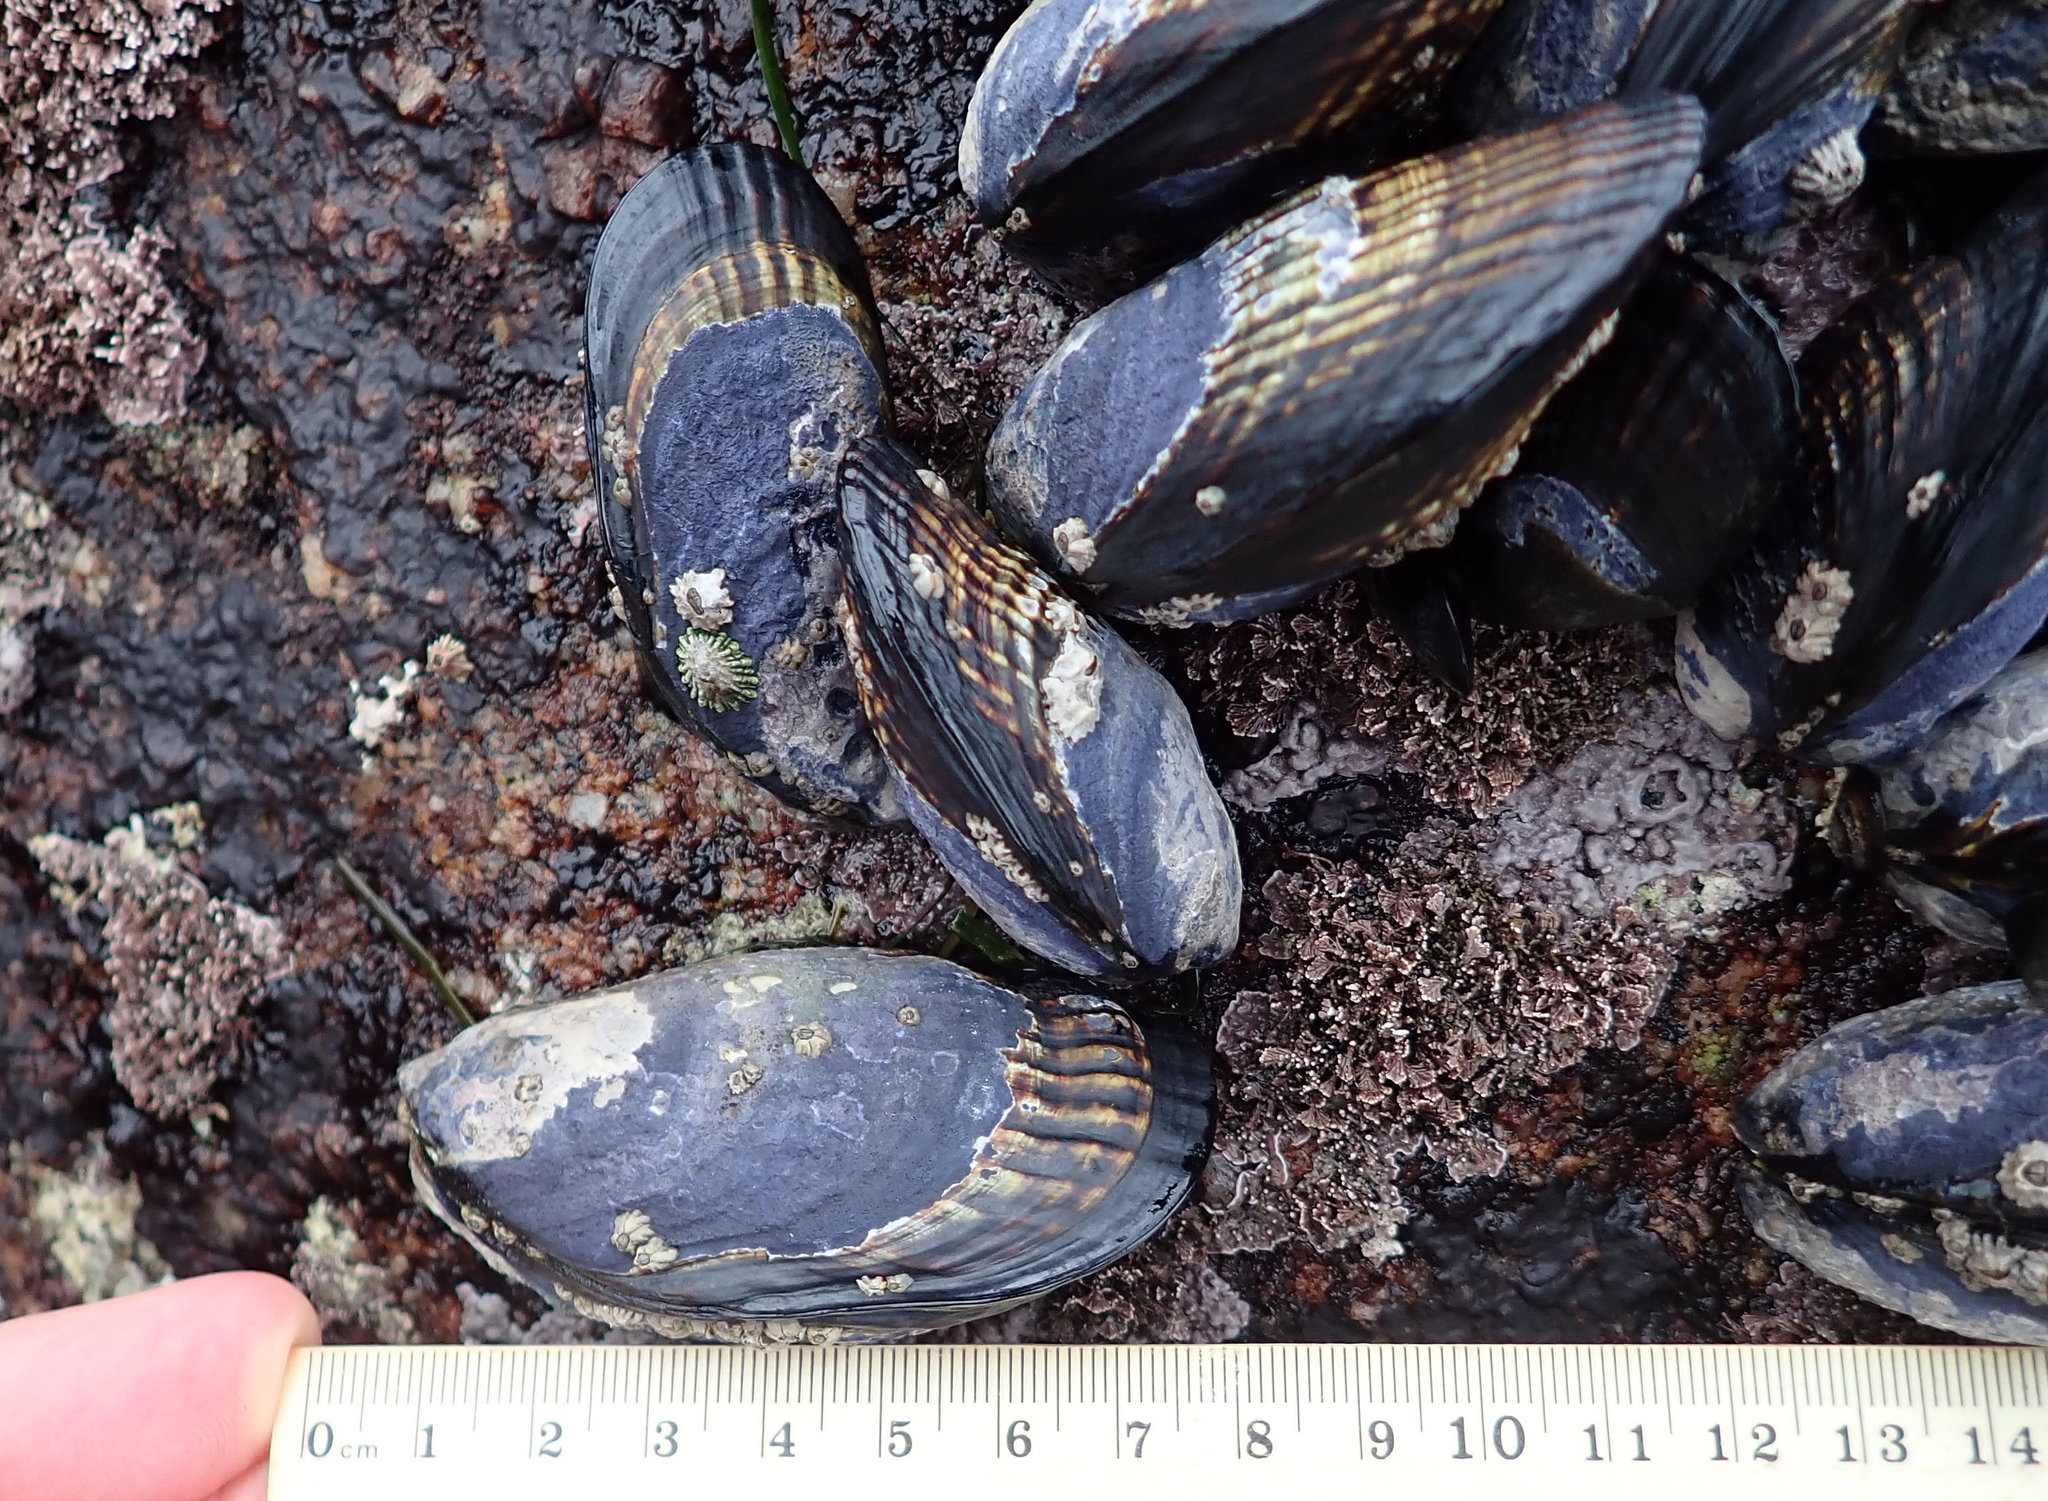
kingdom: Animalia
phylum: Mollusca
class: Bivalvia
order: Mytilida
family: Mytilidae
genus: Mytilus
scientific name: Mytilus californianus
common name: California mussel
